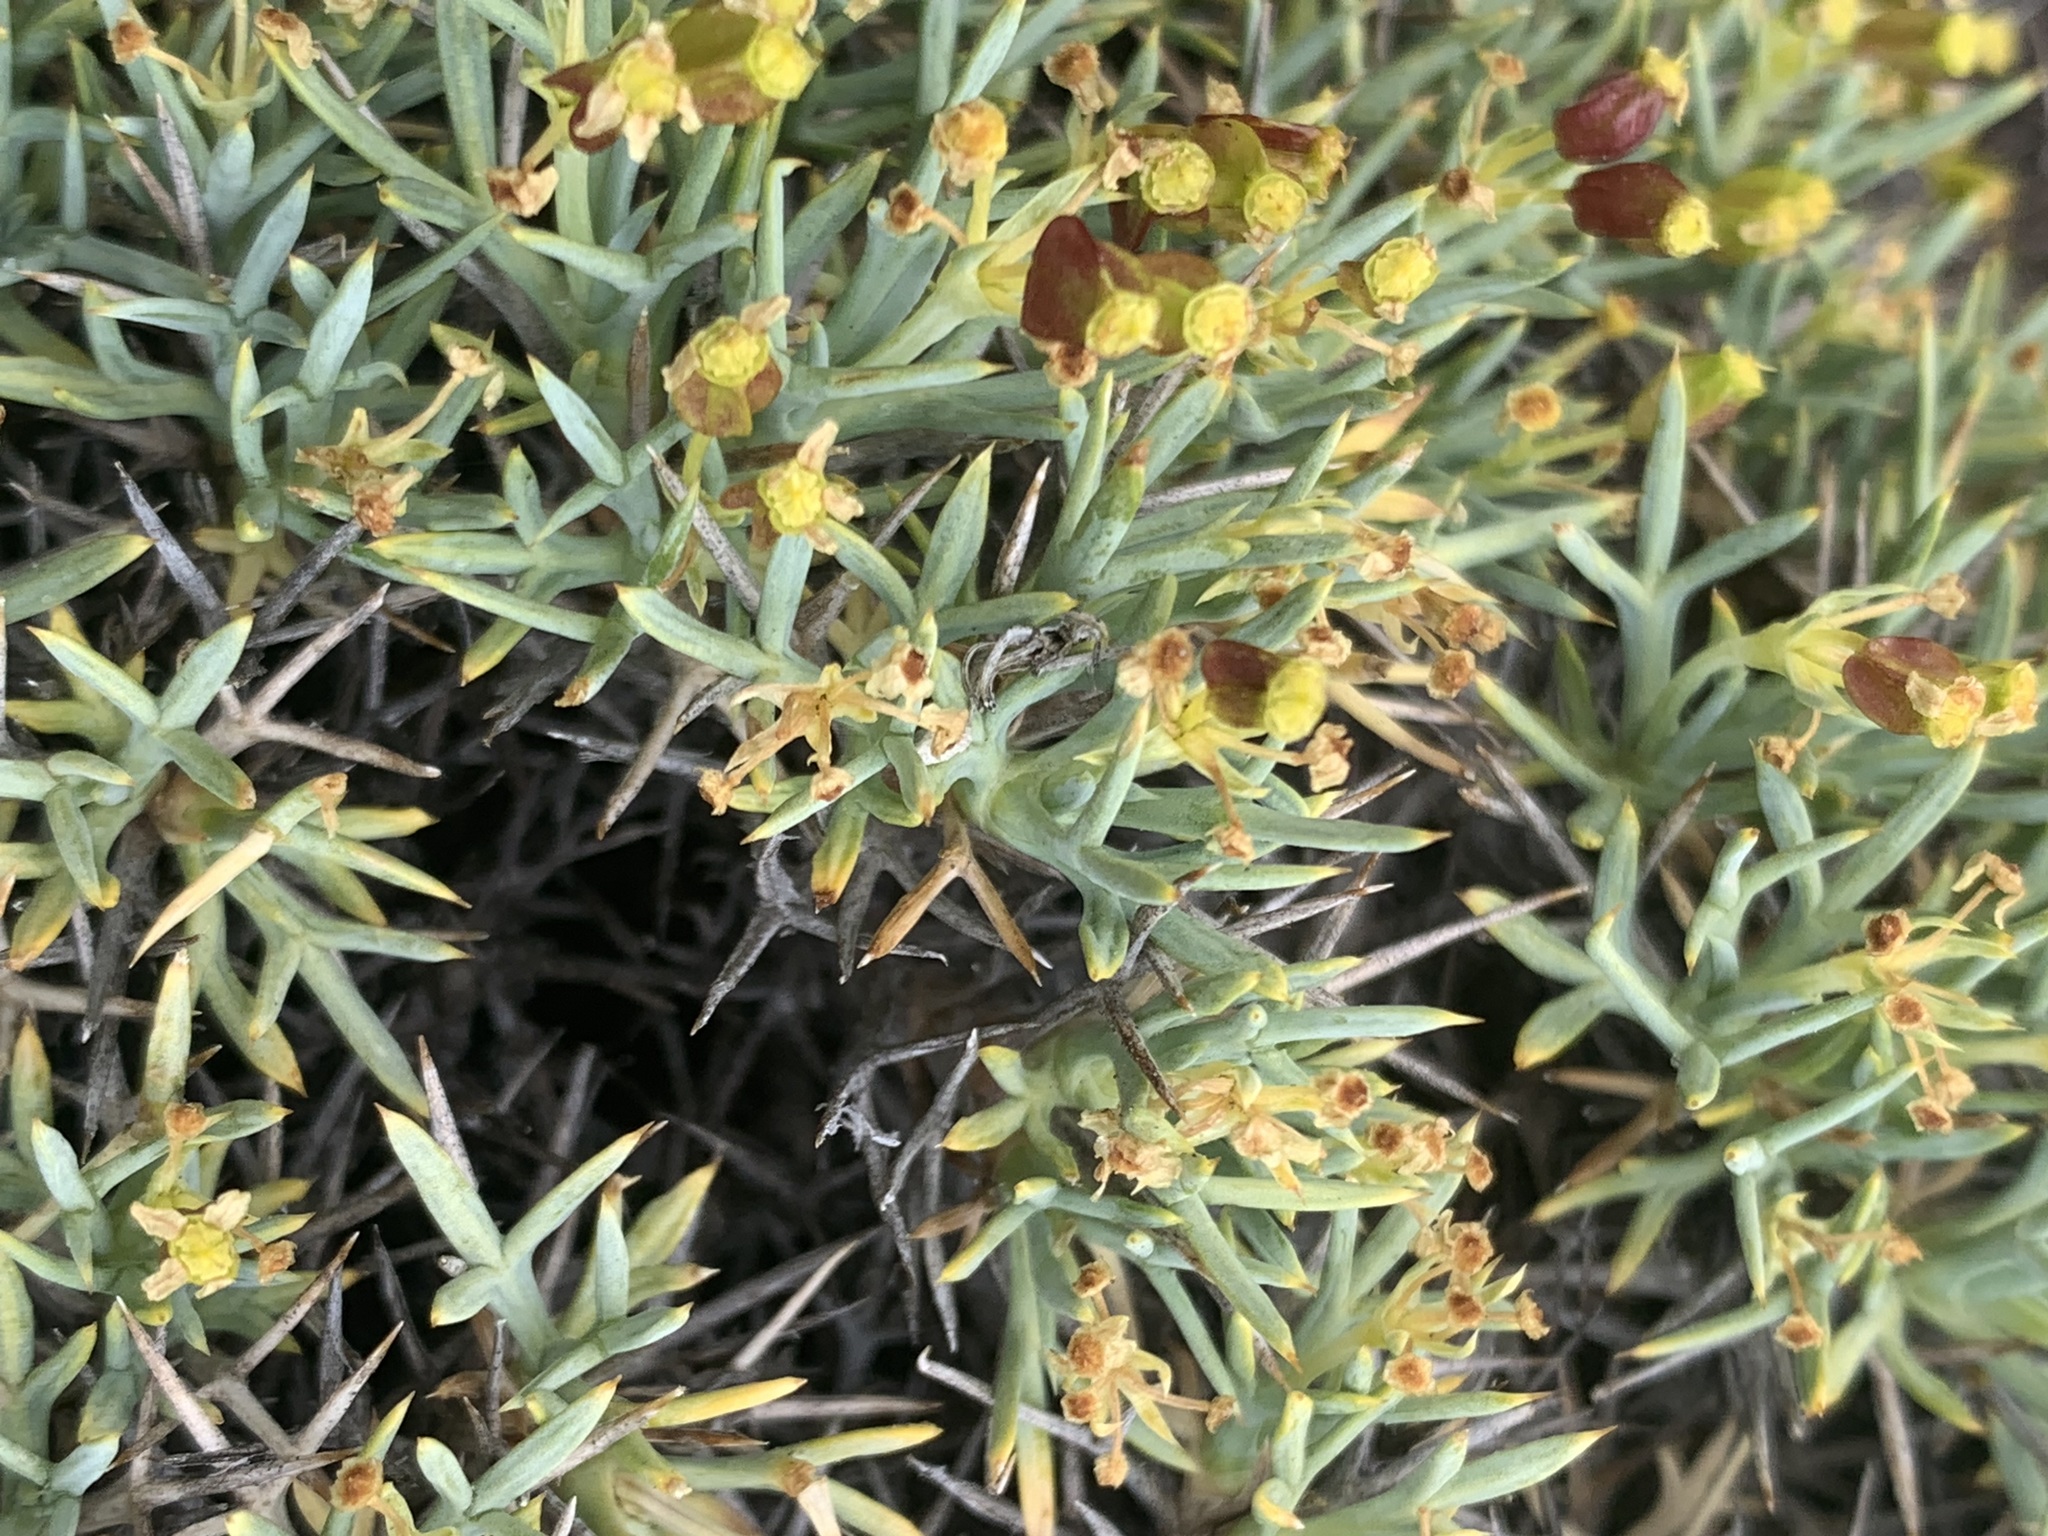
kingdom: Plantae
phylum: Tracheophyta
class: Magnoliopsida
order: Apiales
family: Apiaceae
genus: Azorella
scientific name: Azorella prolifera
